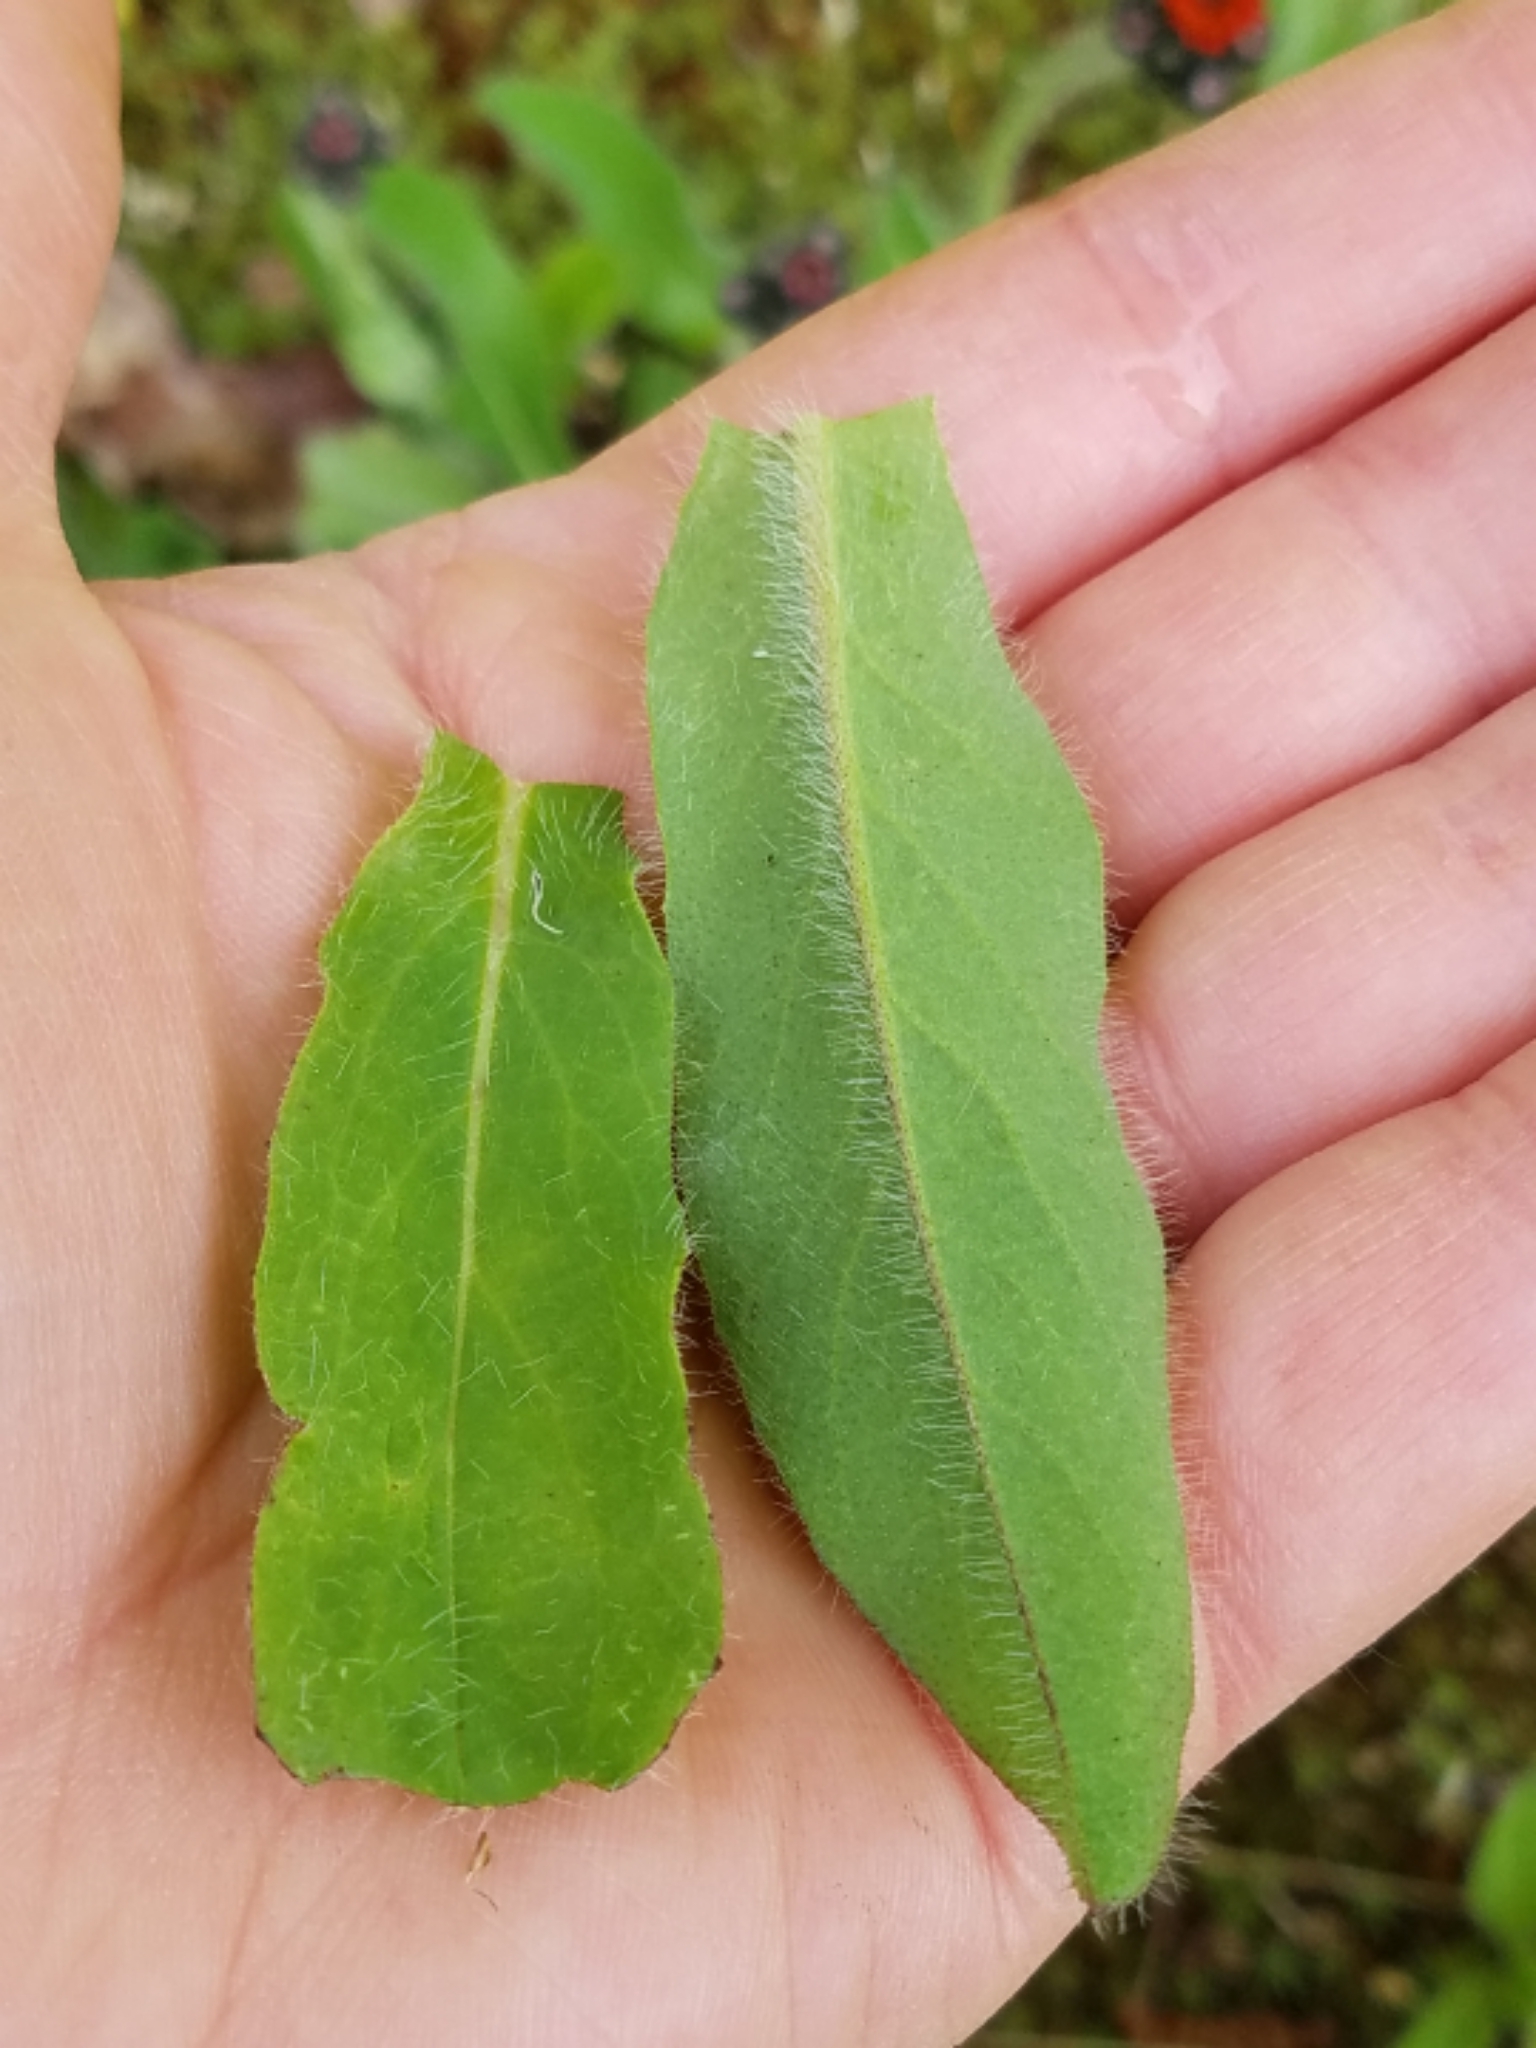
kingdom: Plantae
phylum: Tracheophyta
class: Magnoliopsida
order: Asterales
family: Asteraceae
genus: Pilosella
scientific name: Pilosella aurantiaca
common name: Fox-and-cubs
